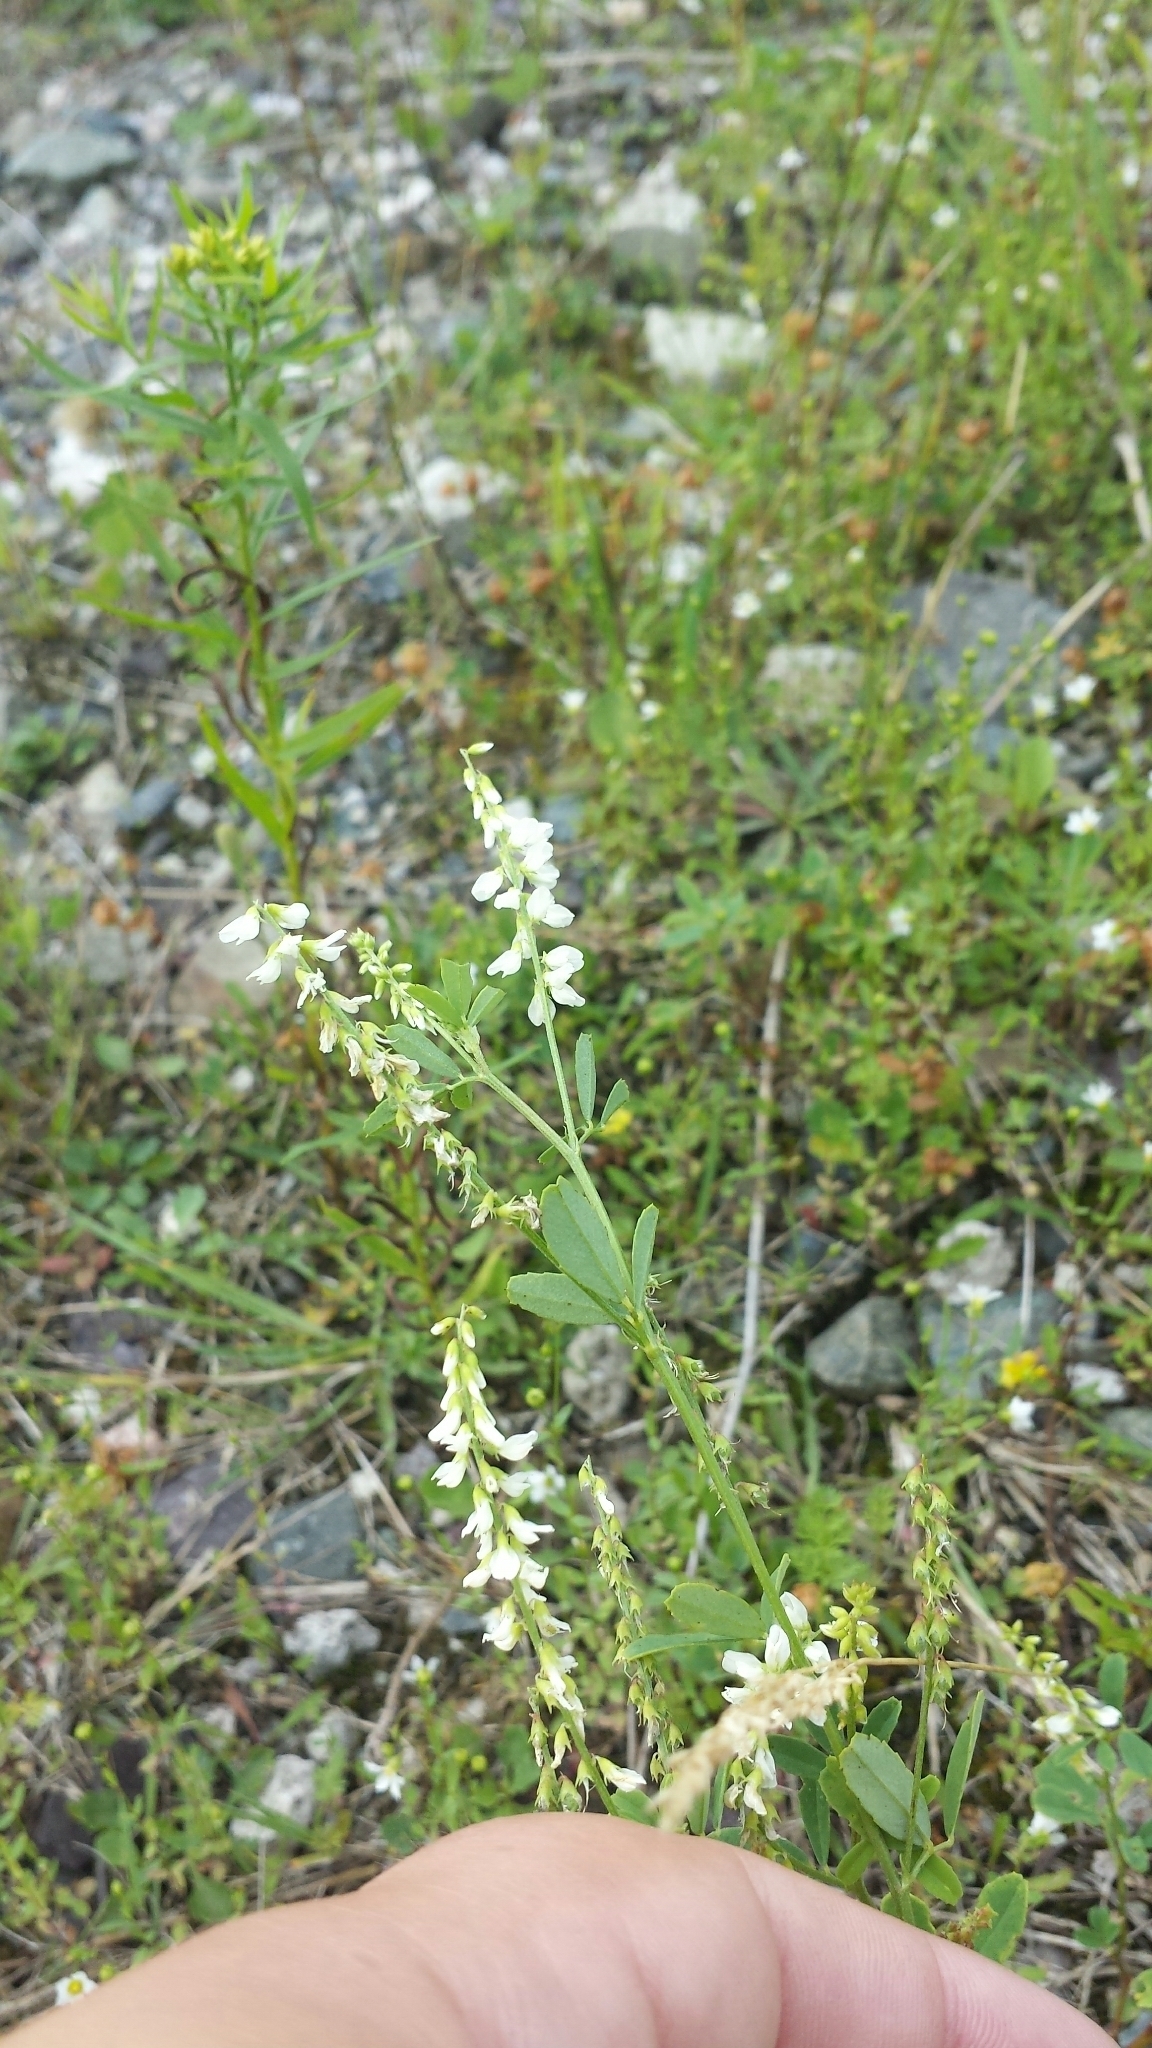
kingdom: Plantae
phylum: Tracheophyta
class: Magnoliopsida
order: Fabales
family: Fabaceae
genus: Melilotus
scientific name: Melilotus albus
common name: White melilot
